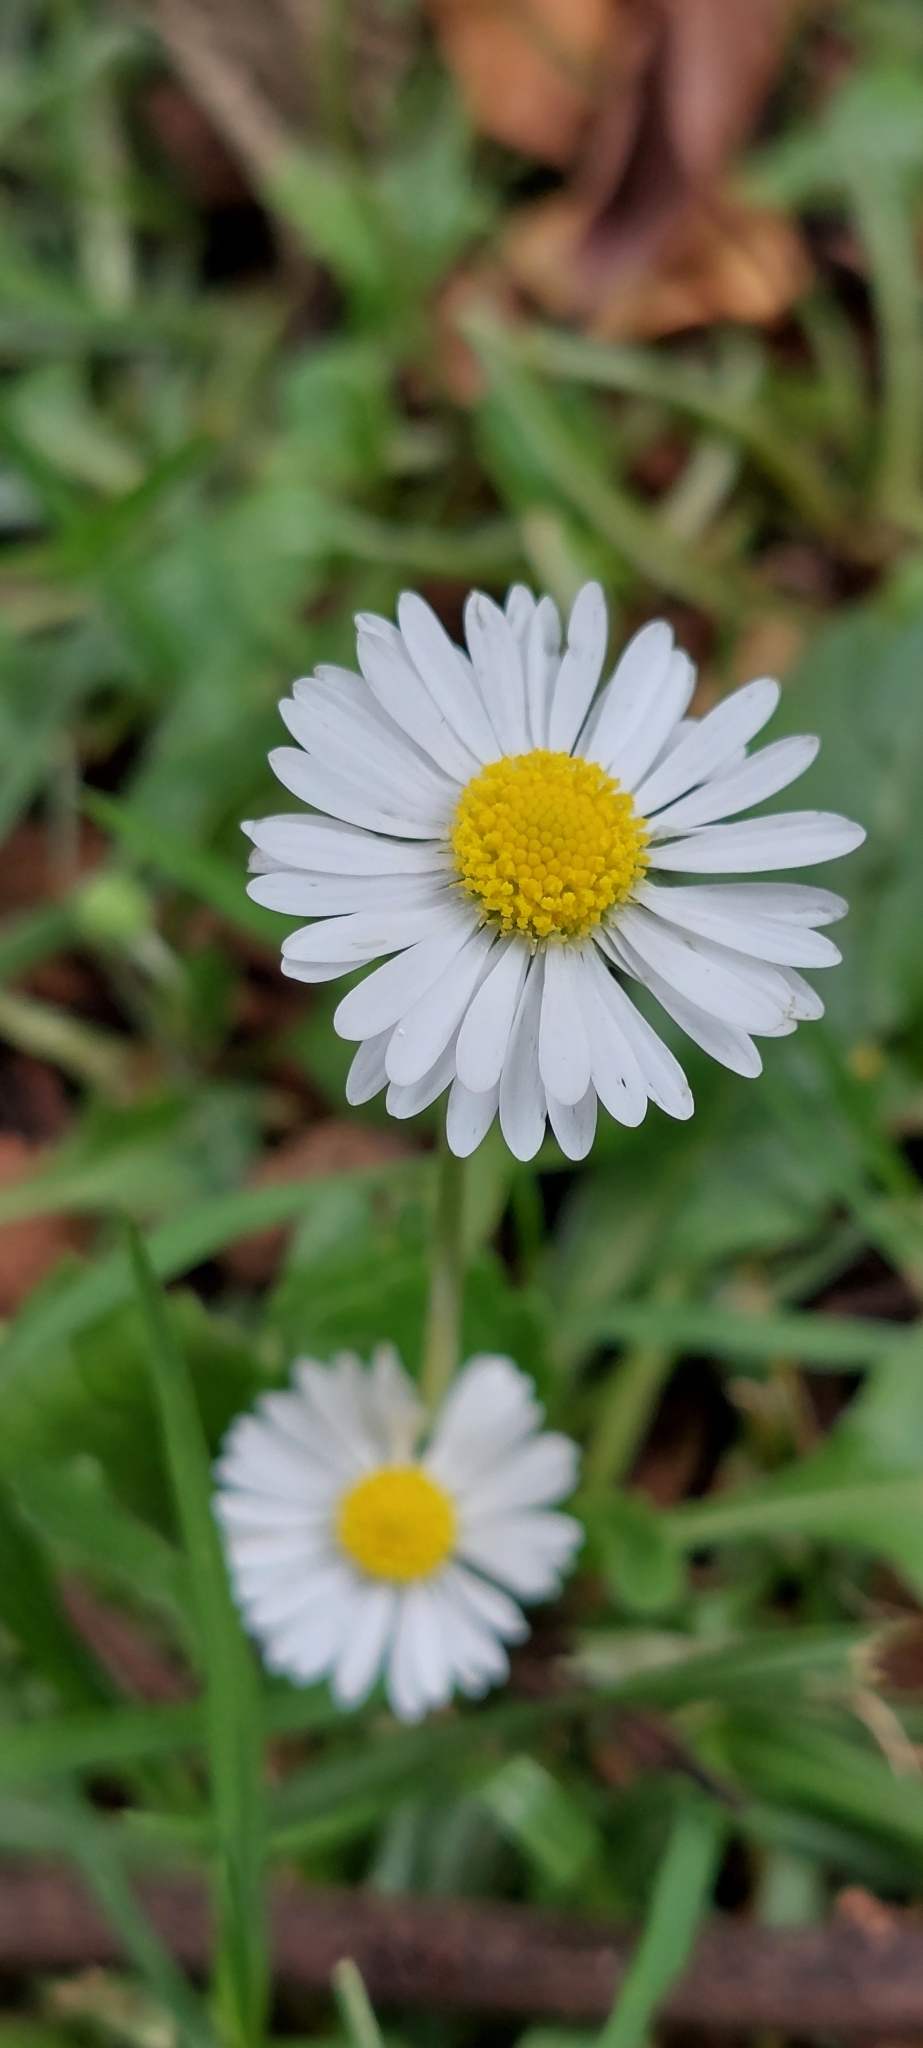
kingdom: Plantae
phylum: Tracheophyta
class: Magnoliopsida
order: Asterales
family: Asteraceae
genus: Bellis
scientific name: Bellis perennis
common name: Lawndaisy
